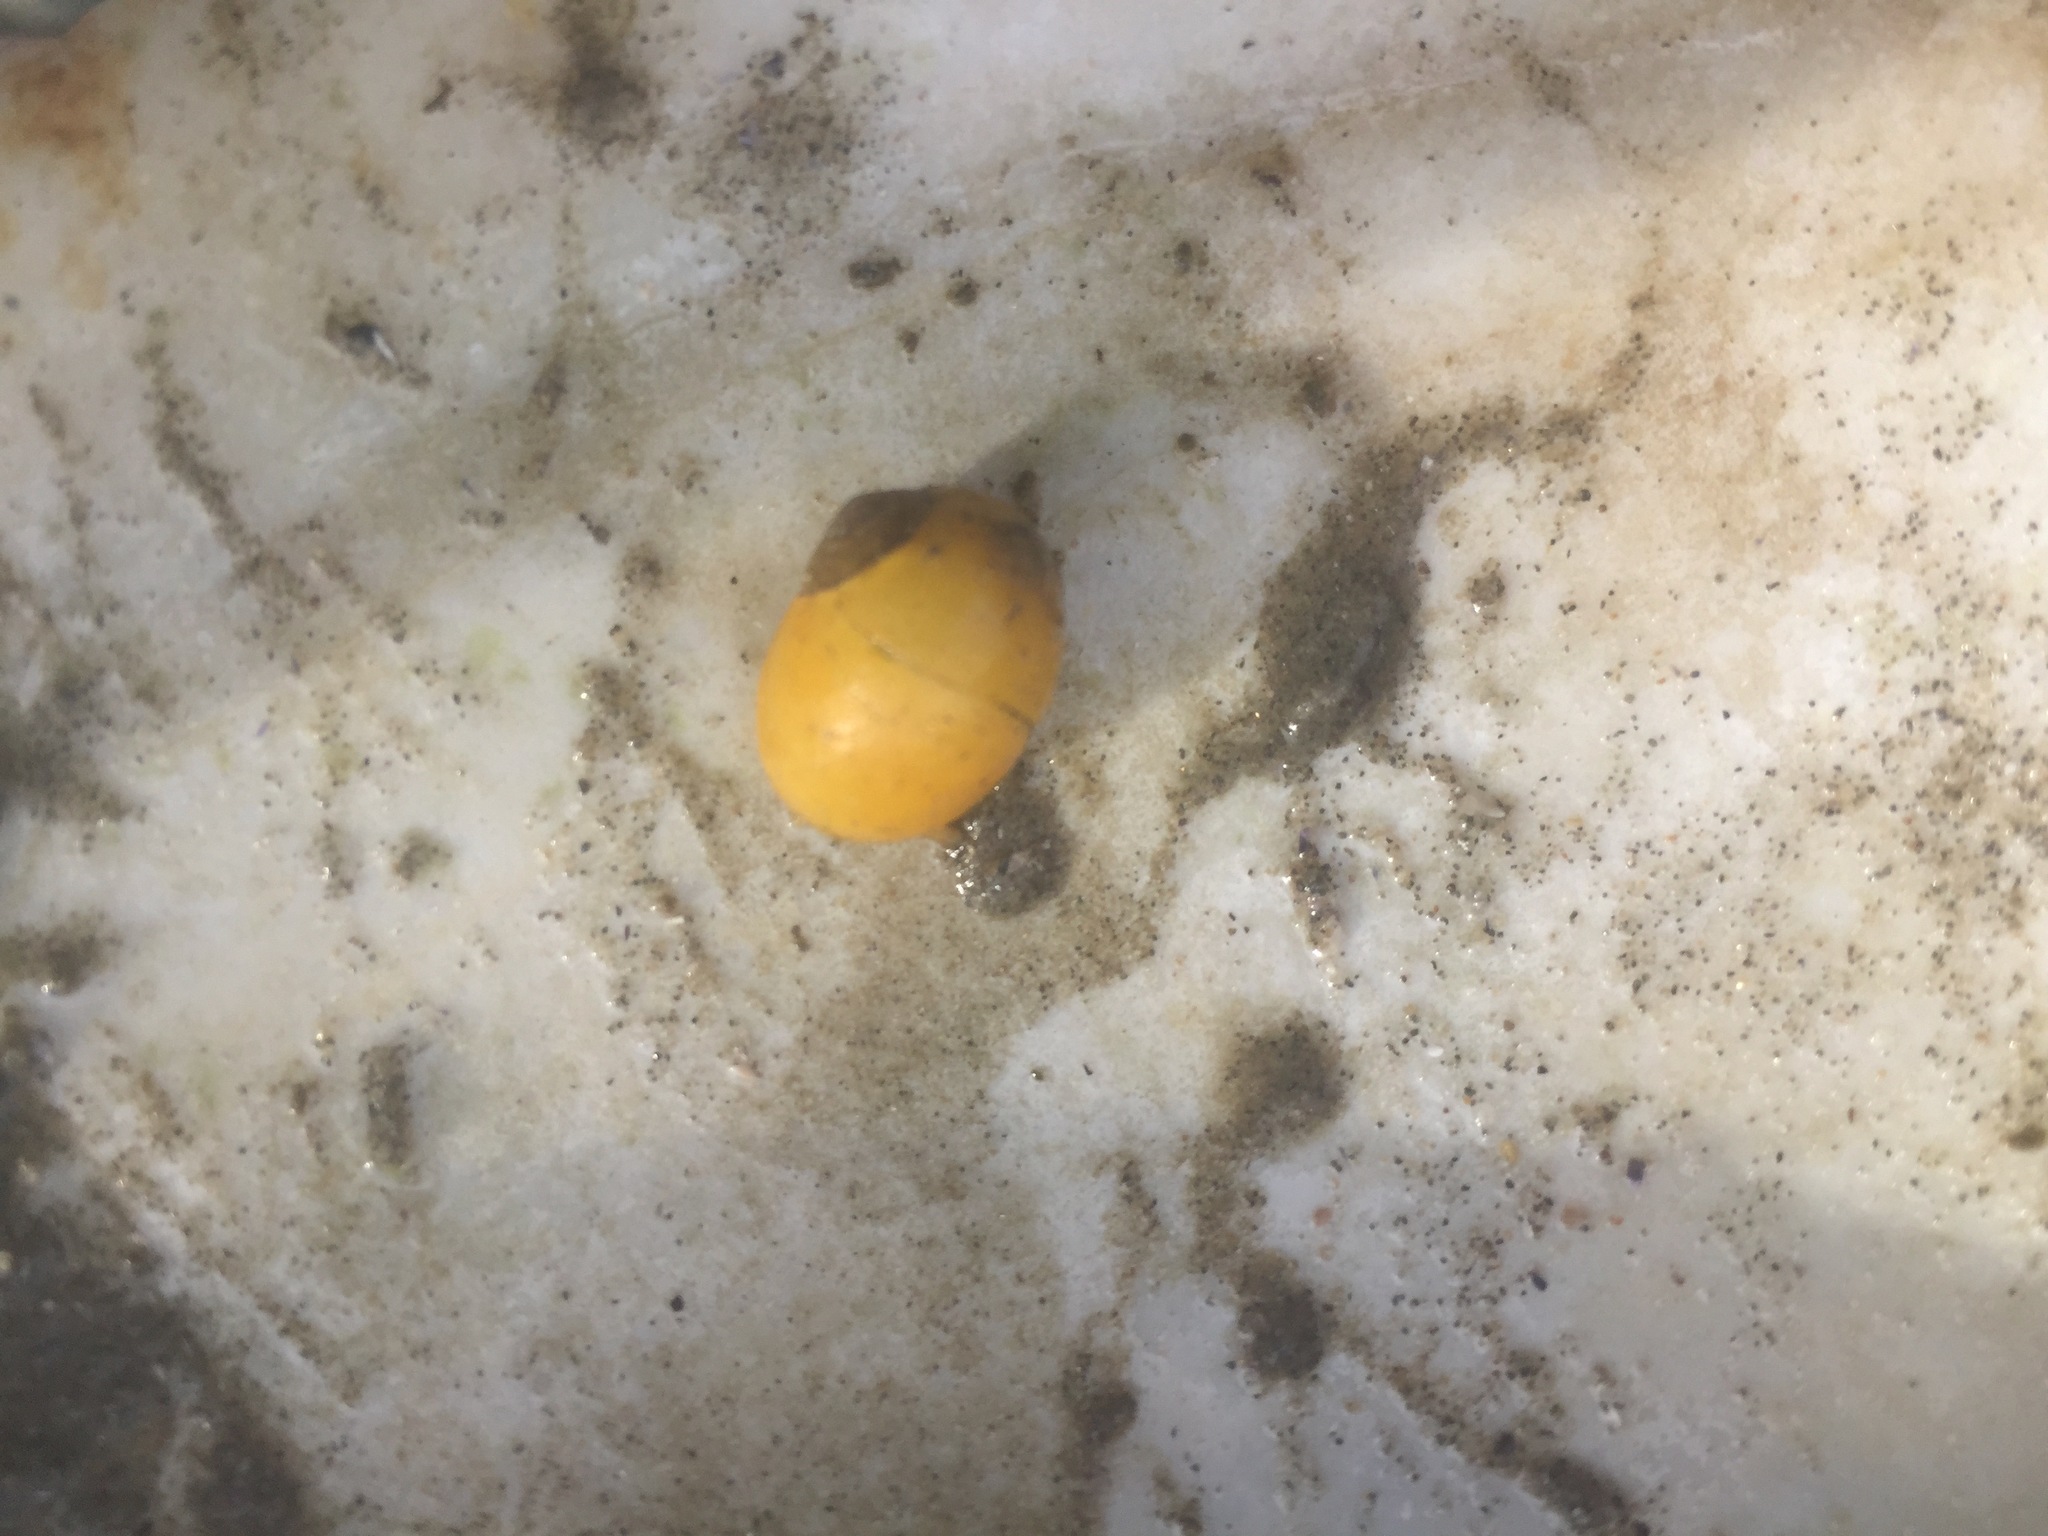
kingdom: Animalia
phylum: Arthropoda
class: Malacostraca
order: Decapoda
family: Cancridae
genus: Cancer
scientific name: Cancer irroratus
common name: Atlantic rock crab
